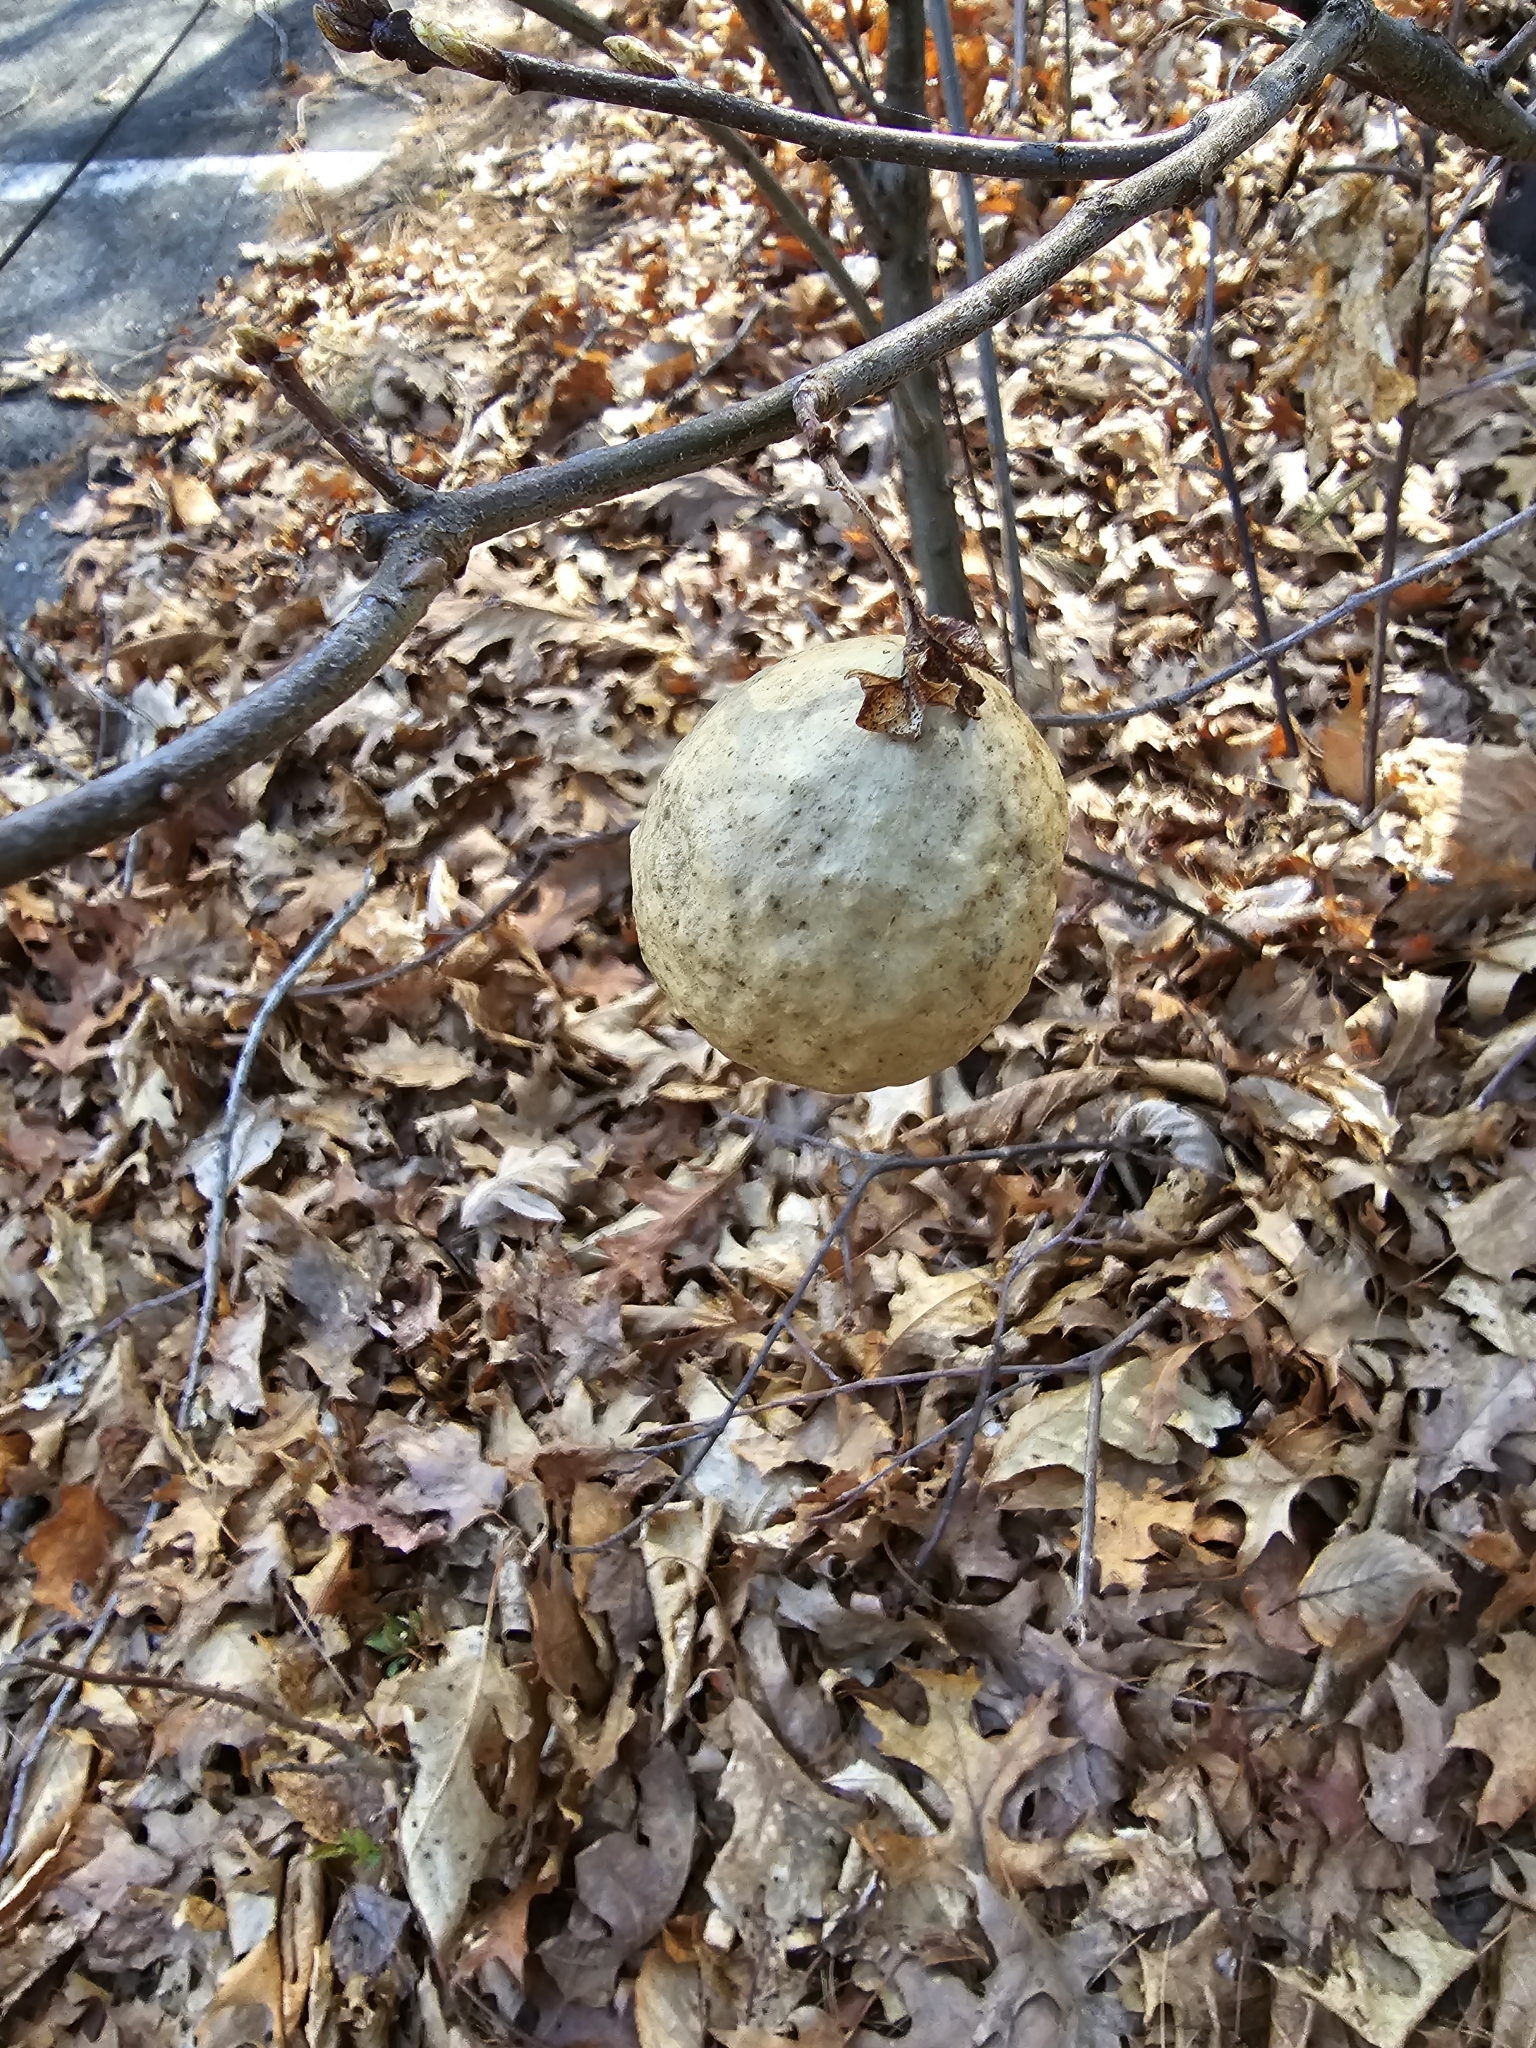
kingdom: Animalia
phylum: Arthropoda
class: Insecta
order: Hymenoptera
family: Cynipidae
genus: Amphibolips
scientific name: Amphibolips
